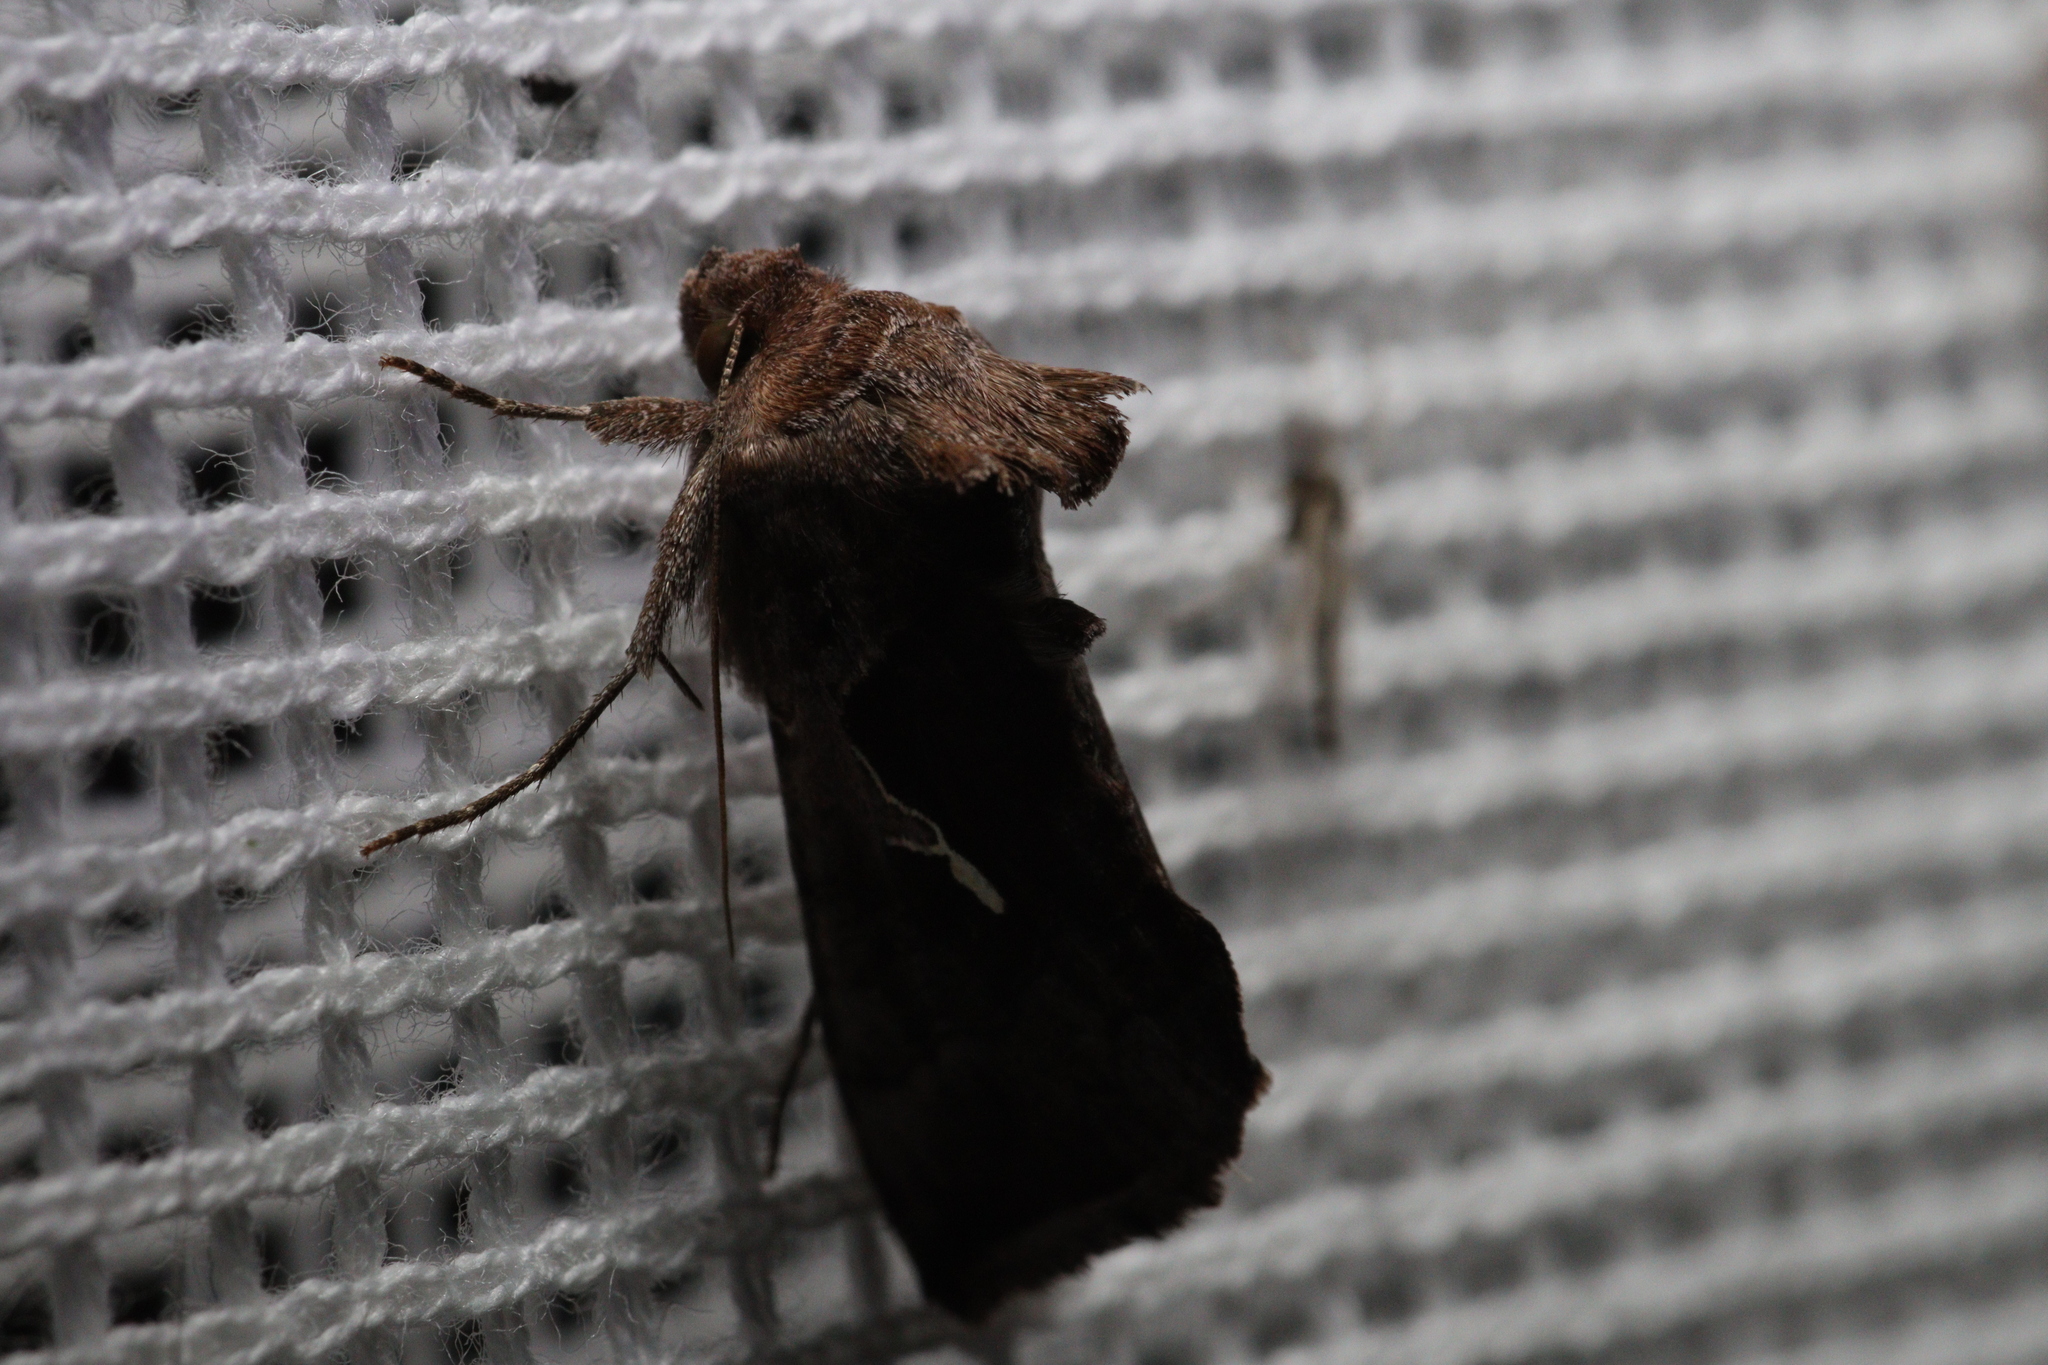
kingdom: Animalia
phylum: Arthropoda
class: Insecta
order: Lepidoptera
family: Noctuidae
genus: Proteuxoa
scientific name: Proteuxoa nuna
